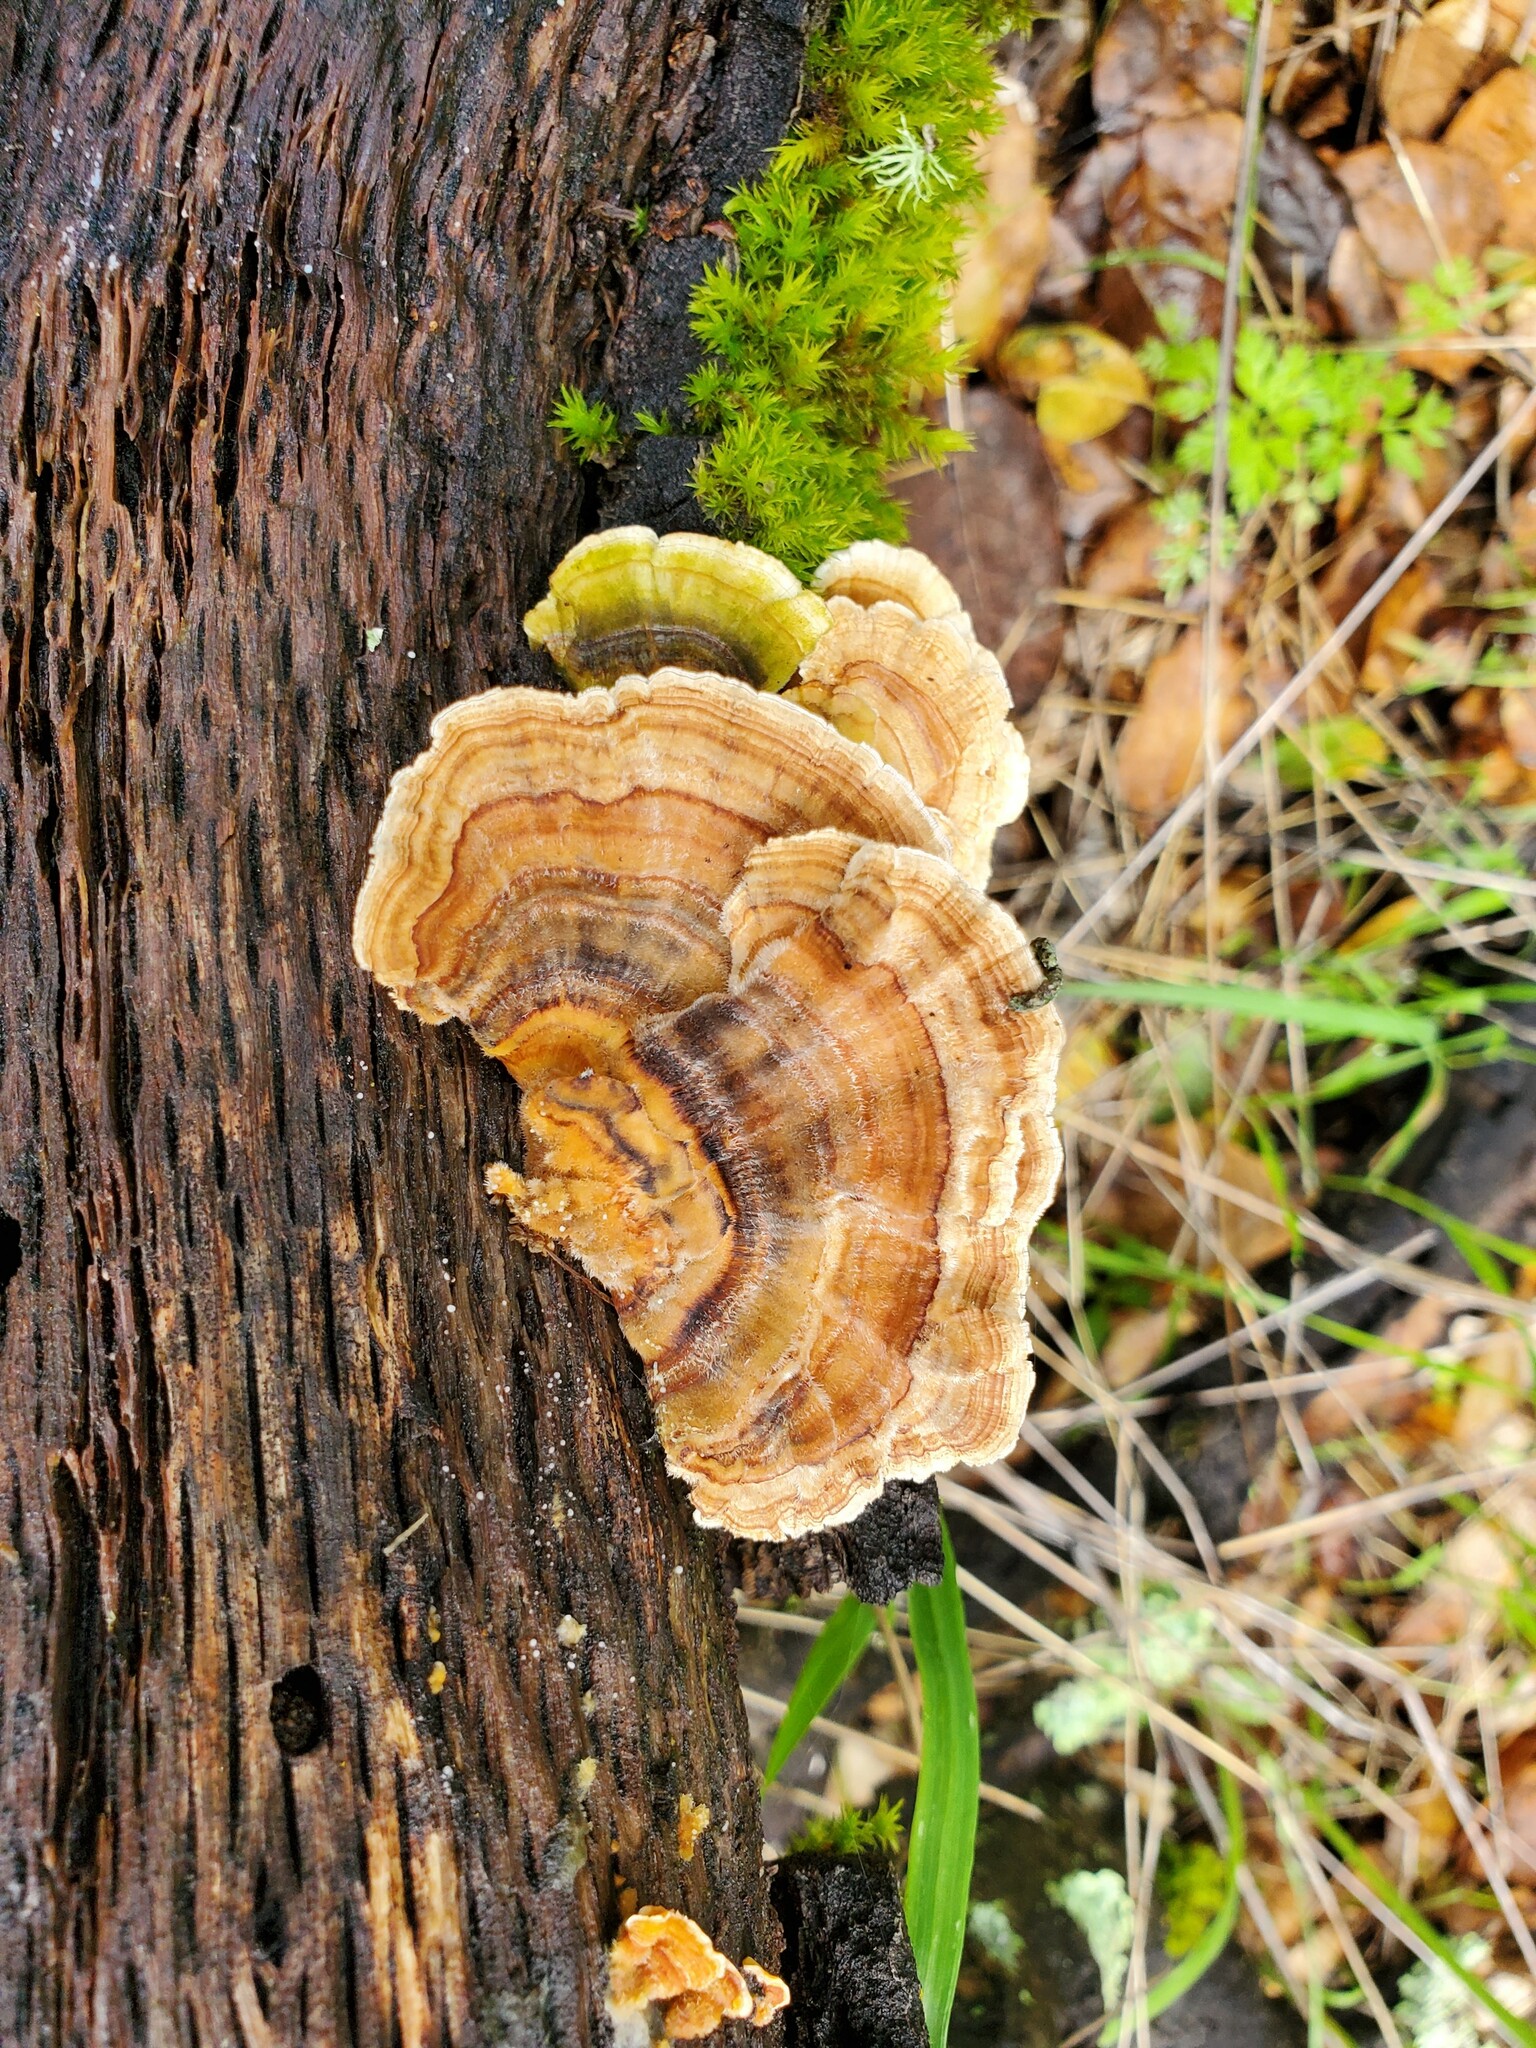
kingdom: Fungi
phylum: Basidiomycota
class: Agaricomycetes
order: Polyporales
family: Polyporaceae
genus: Trametes
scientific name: Trametes versicolor
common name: Turkeytail
